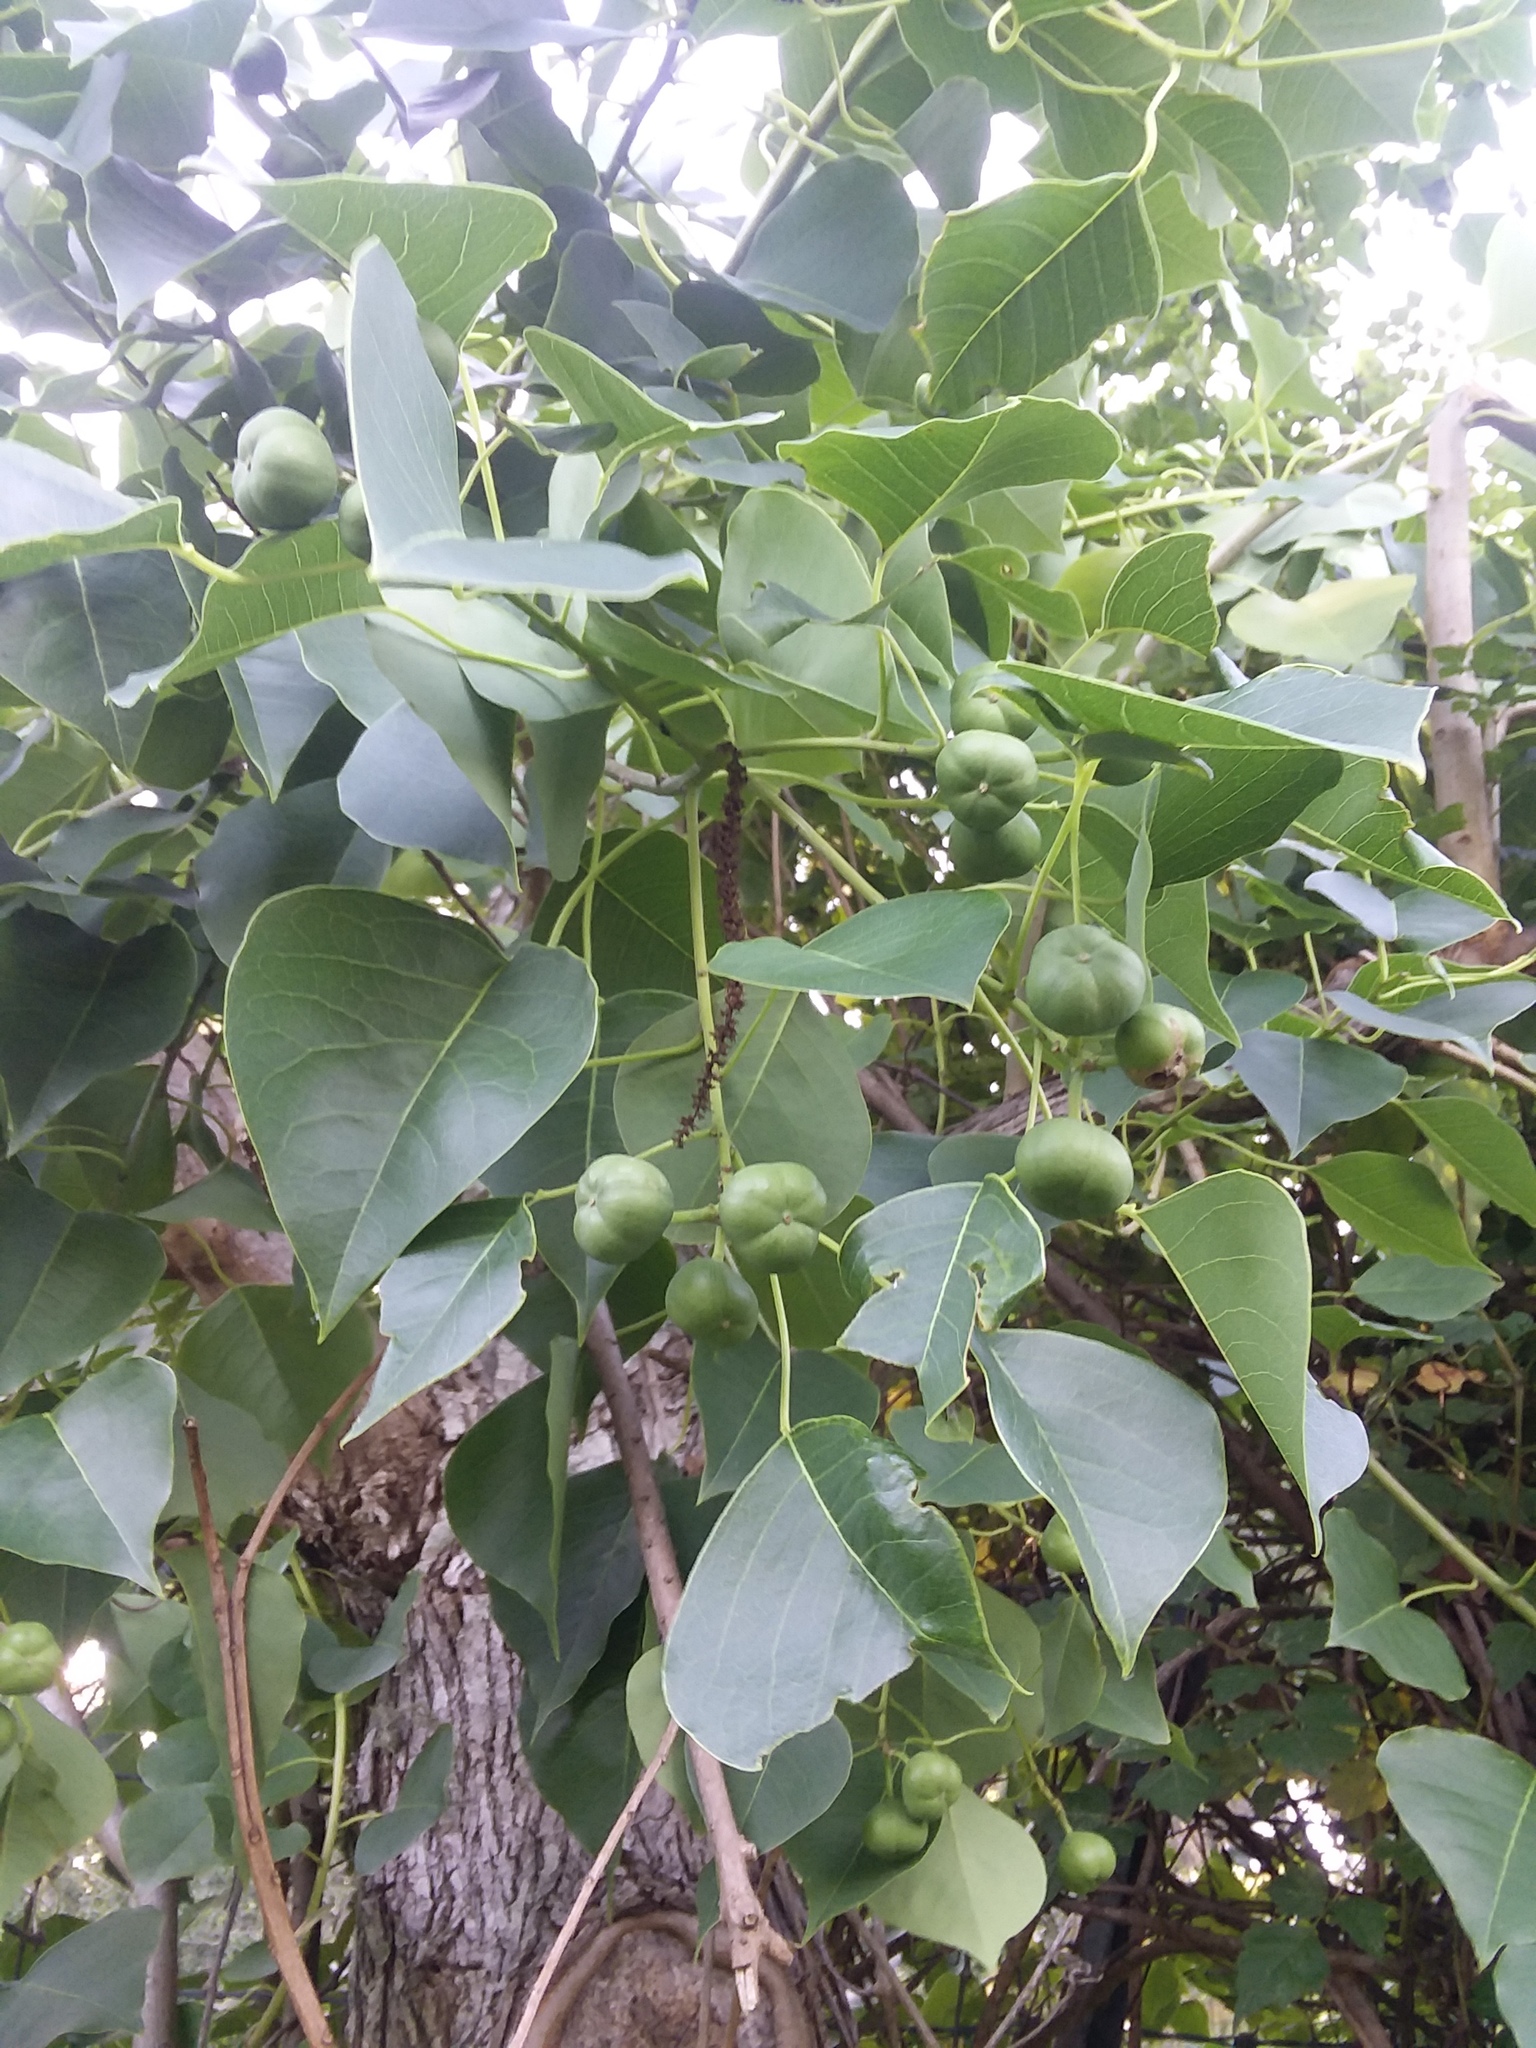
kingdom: Plantae
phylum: Tracheophyta
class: Magnoliopsida
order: Malpighiales
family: Euphorbiaceae
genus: Triadica
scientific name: Triadica sebifera
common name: Chinese tallow
